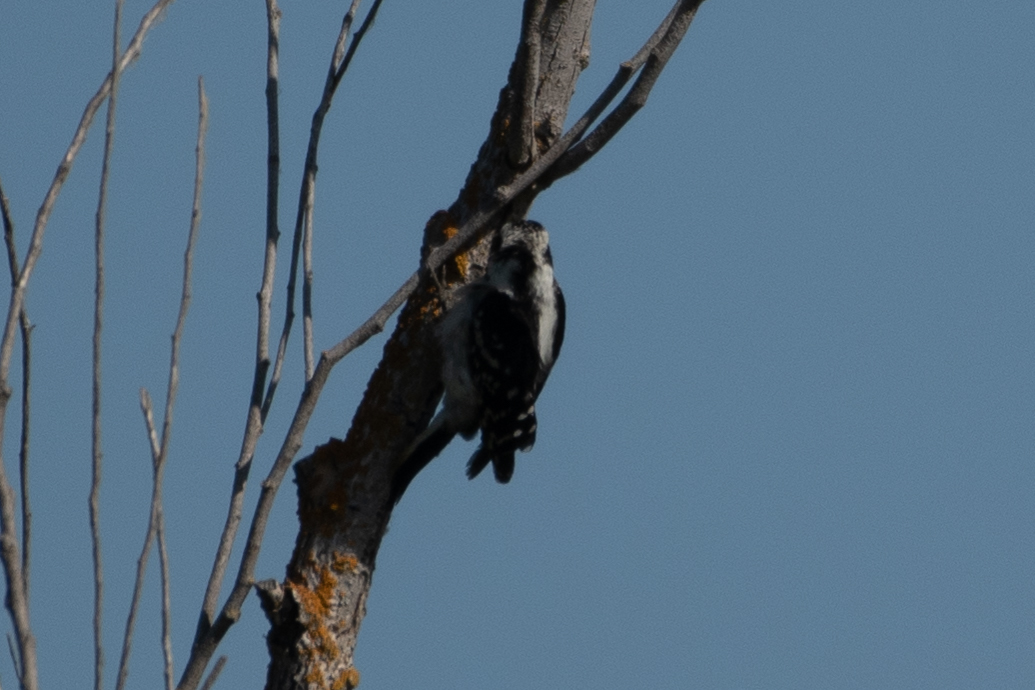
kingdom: Animalia
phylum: Chordata
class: Aves
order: Piciformes
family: Picidae
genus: Dryobates
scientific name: Dryobates pubescens
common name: Downy woodpecker
